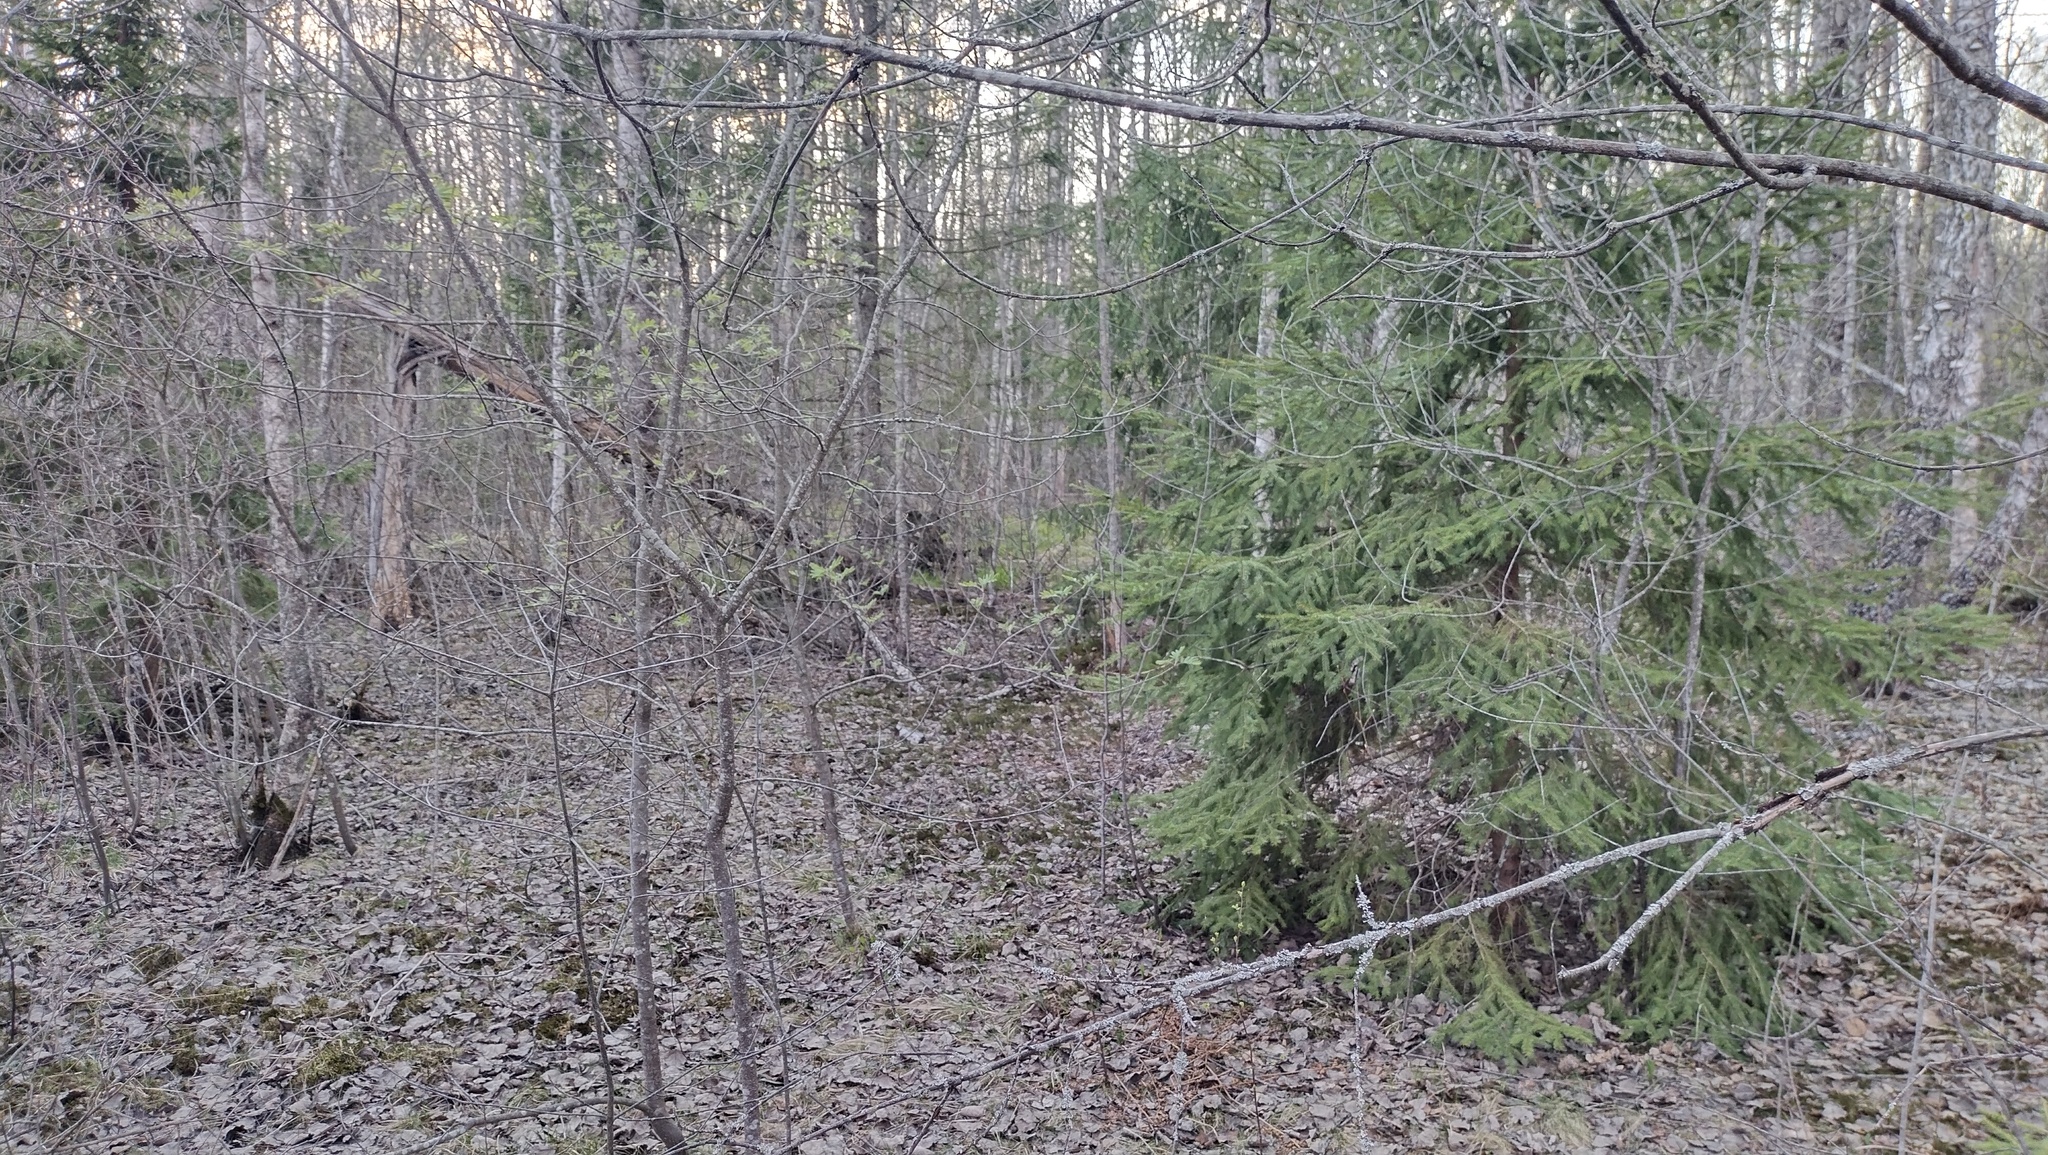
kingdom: Plantae
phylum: Tracheophyta
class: Pinopsida
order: Pinales
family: Pinaceae
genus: Picea
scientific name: Picea abies
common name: Norway spruce
